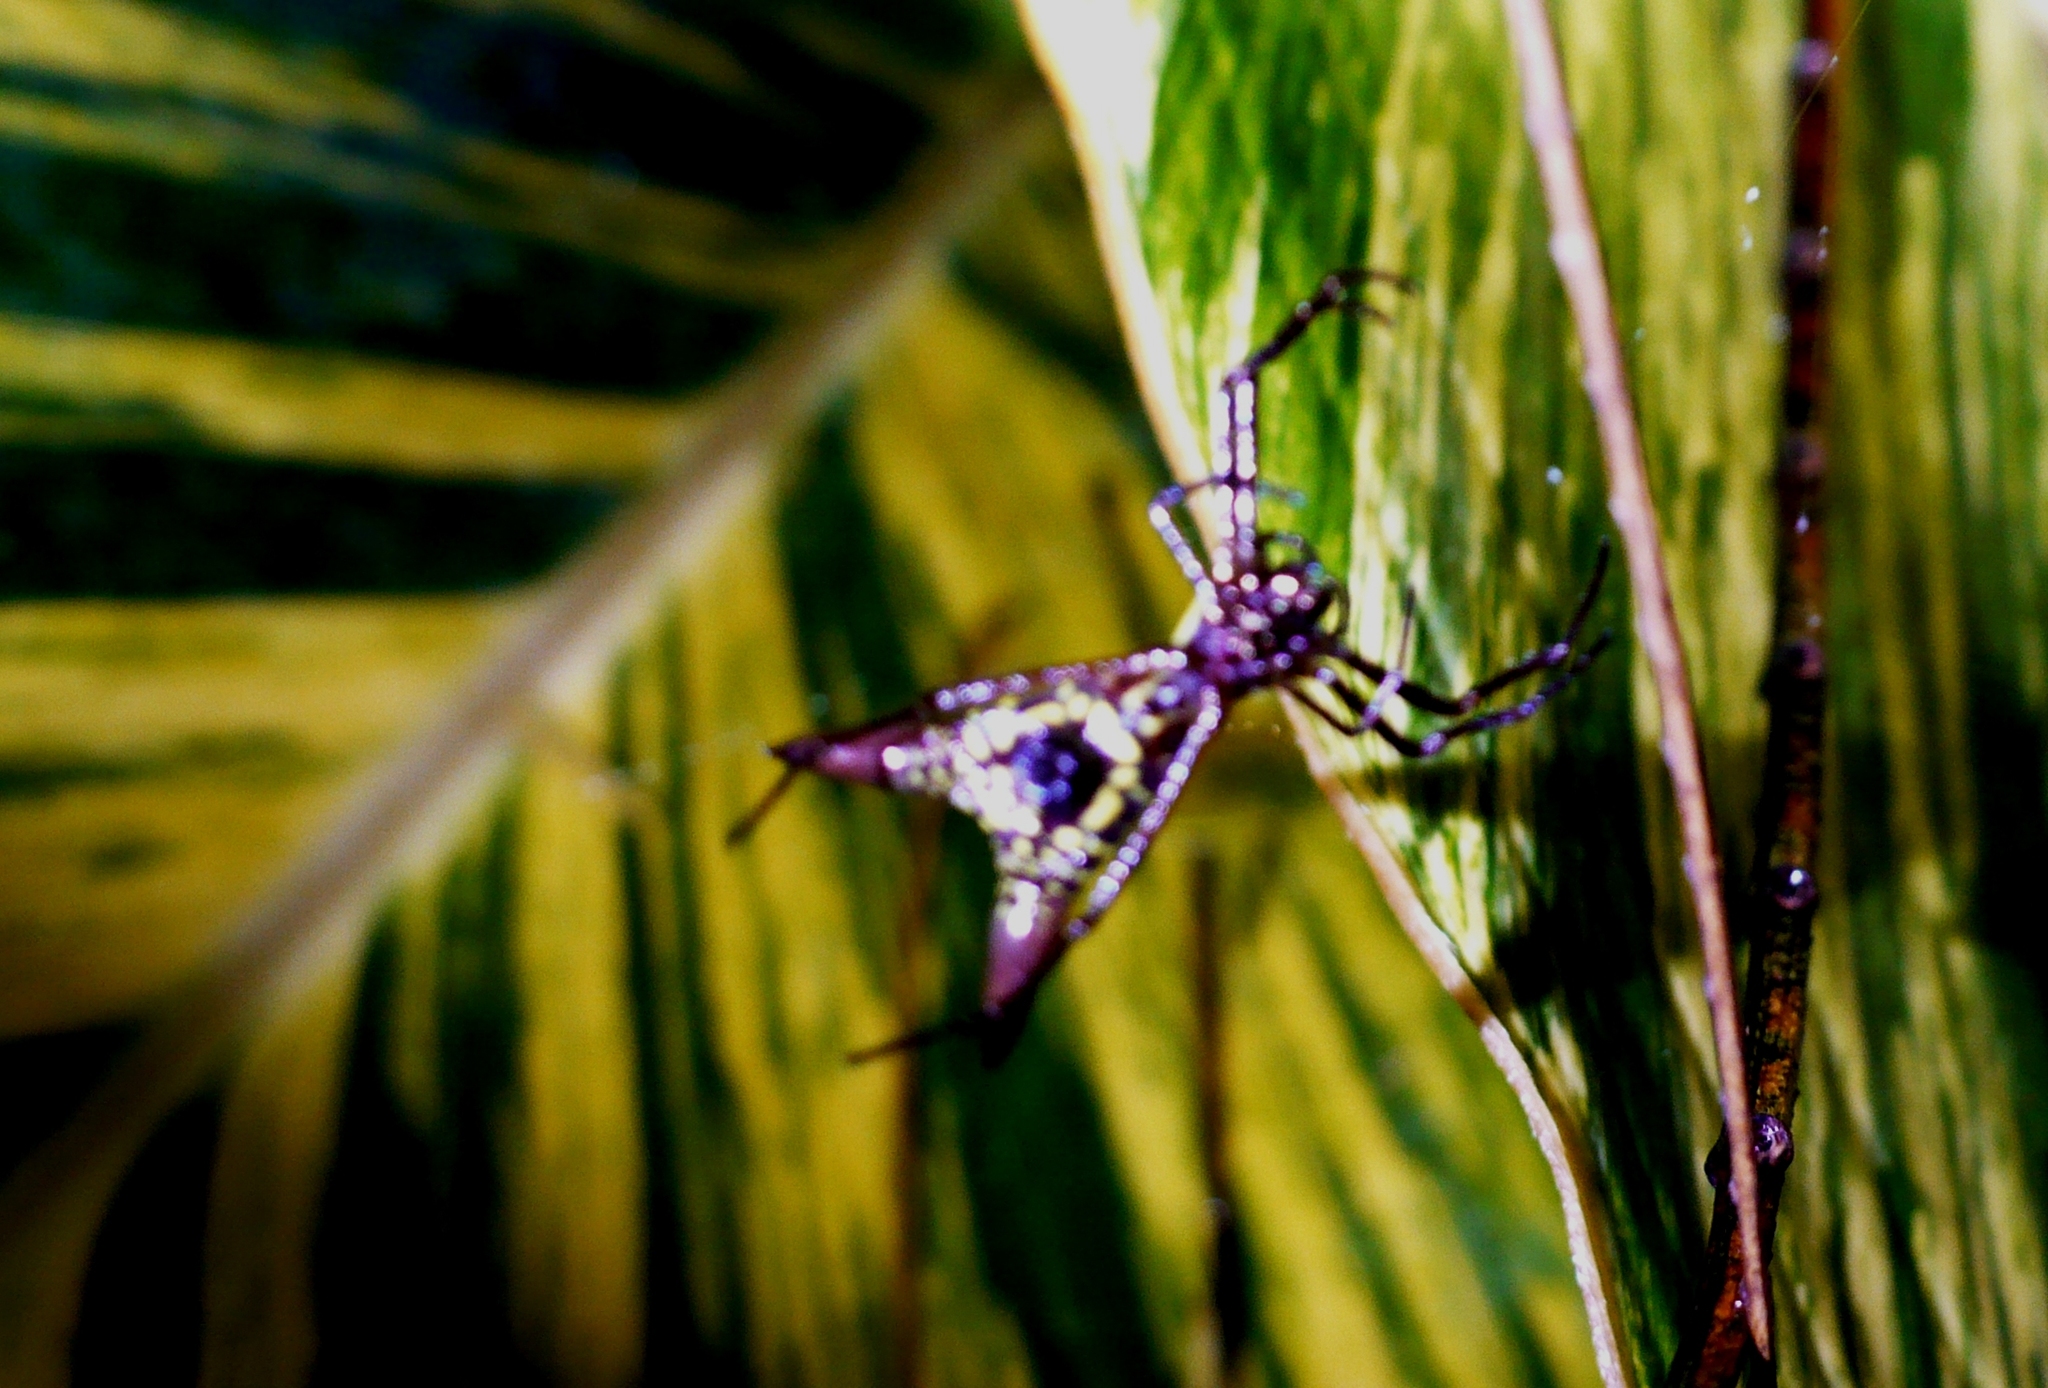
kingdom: Animalia
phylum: Arthropoda
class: Arachnida
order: Araneae
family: Araneidae
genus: Micrathena
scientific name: Micrathena sexspinosa
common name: Orb weavers
